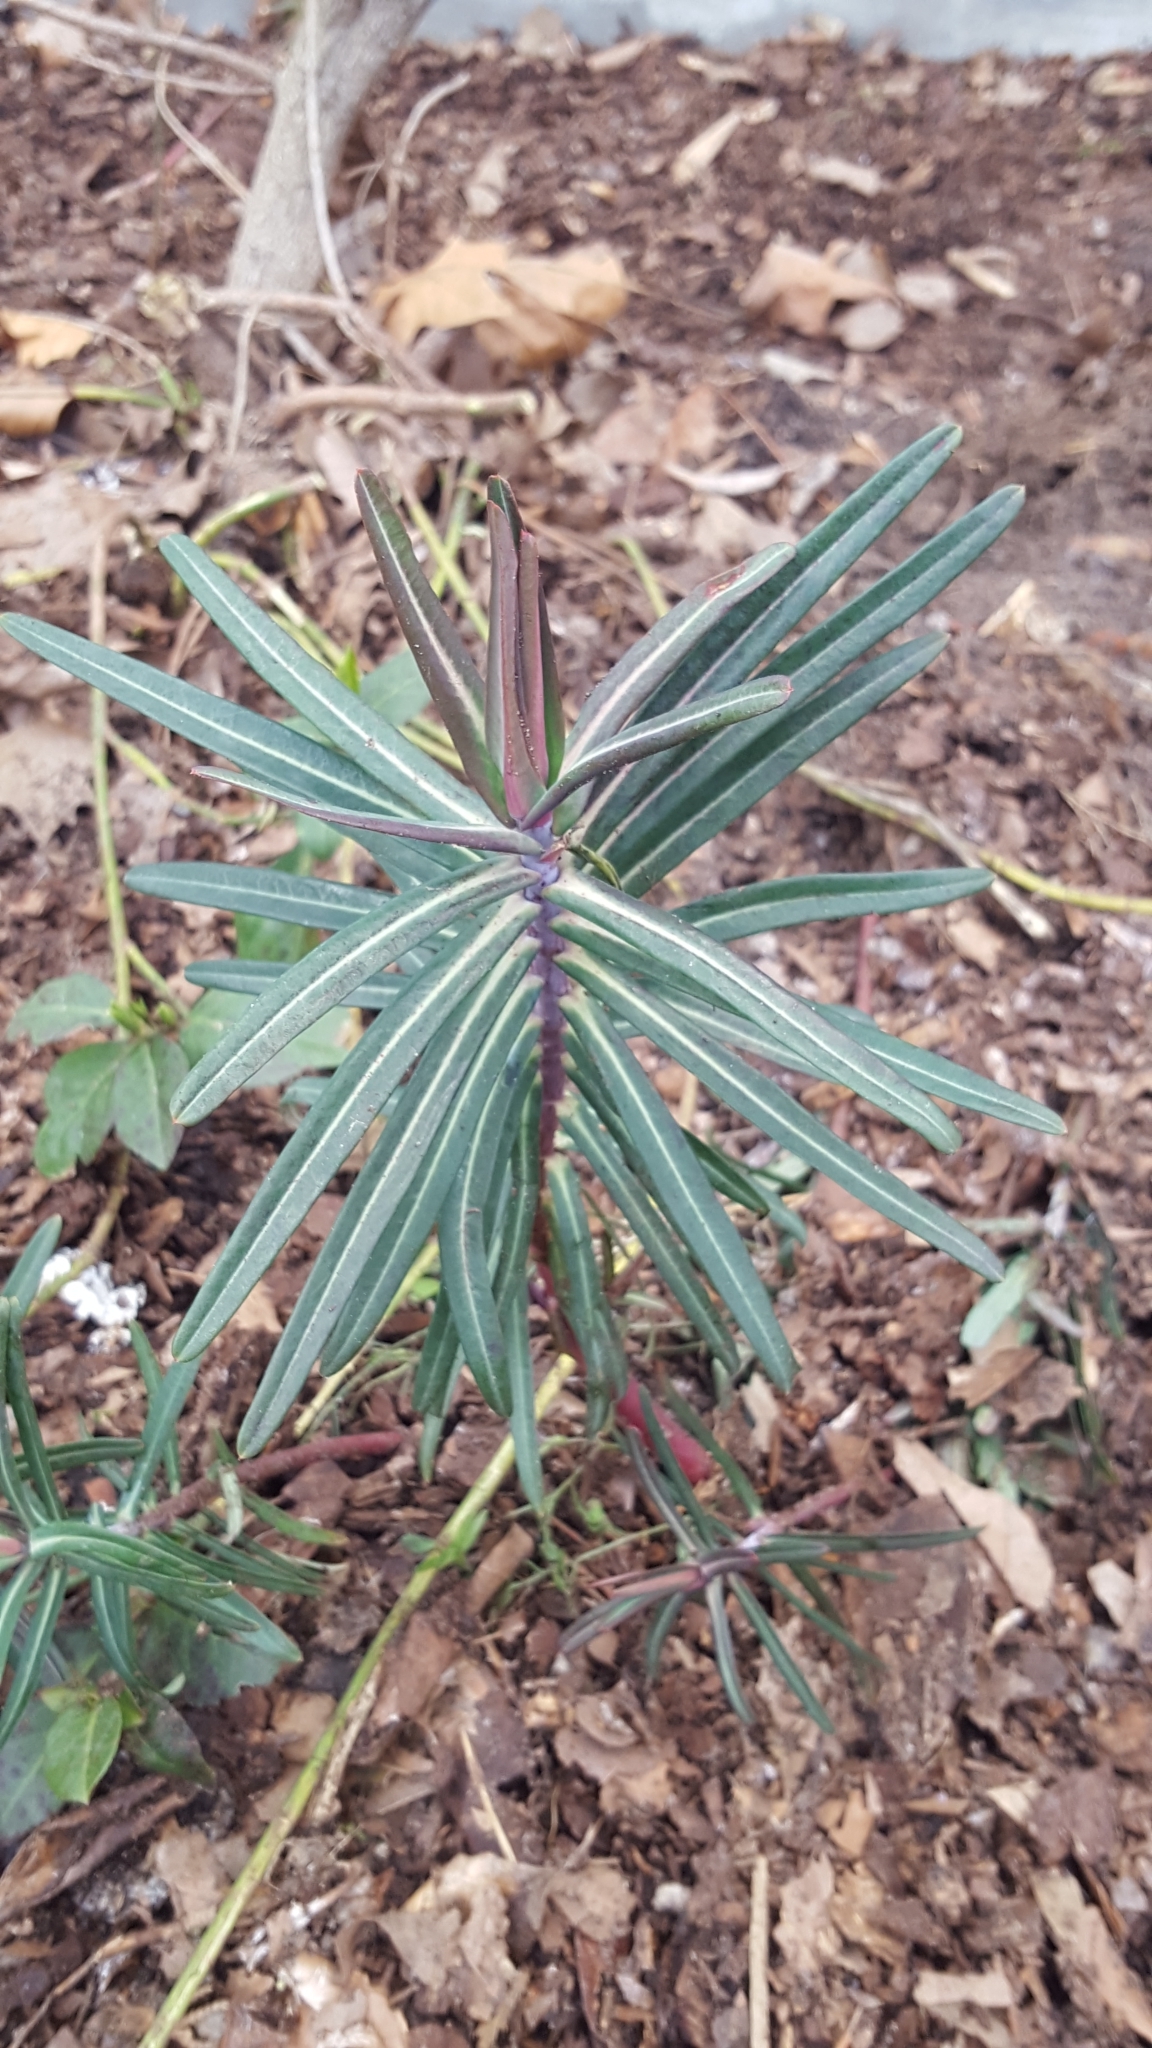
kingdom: Plantae
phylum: Tracheophyta
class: Magnoliopsida
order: Malpighiales
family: Euphorbiaceae
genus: Euphorbia
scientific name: Euphorbia lathyris
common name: Caper spurge
